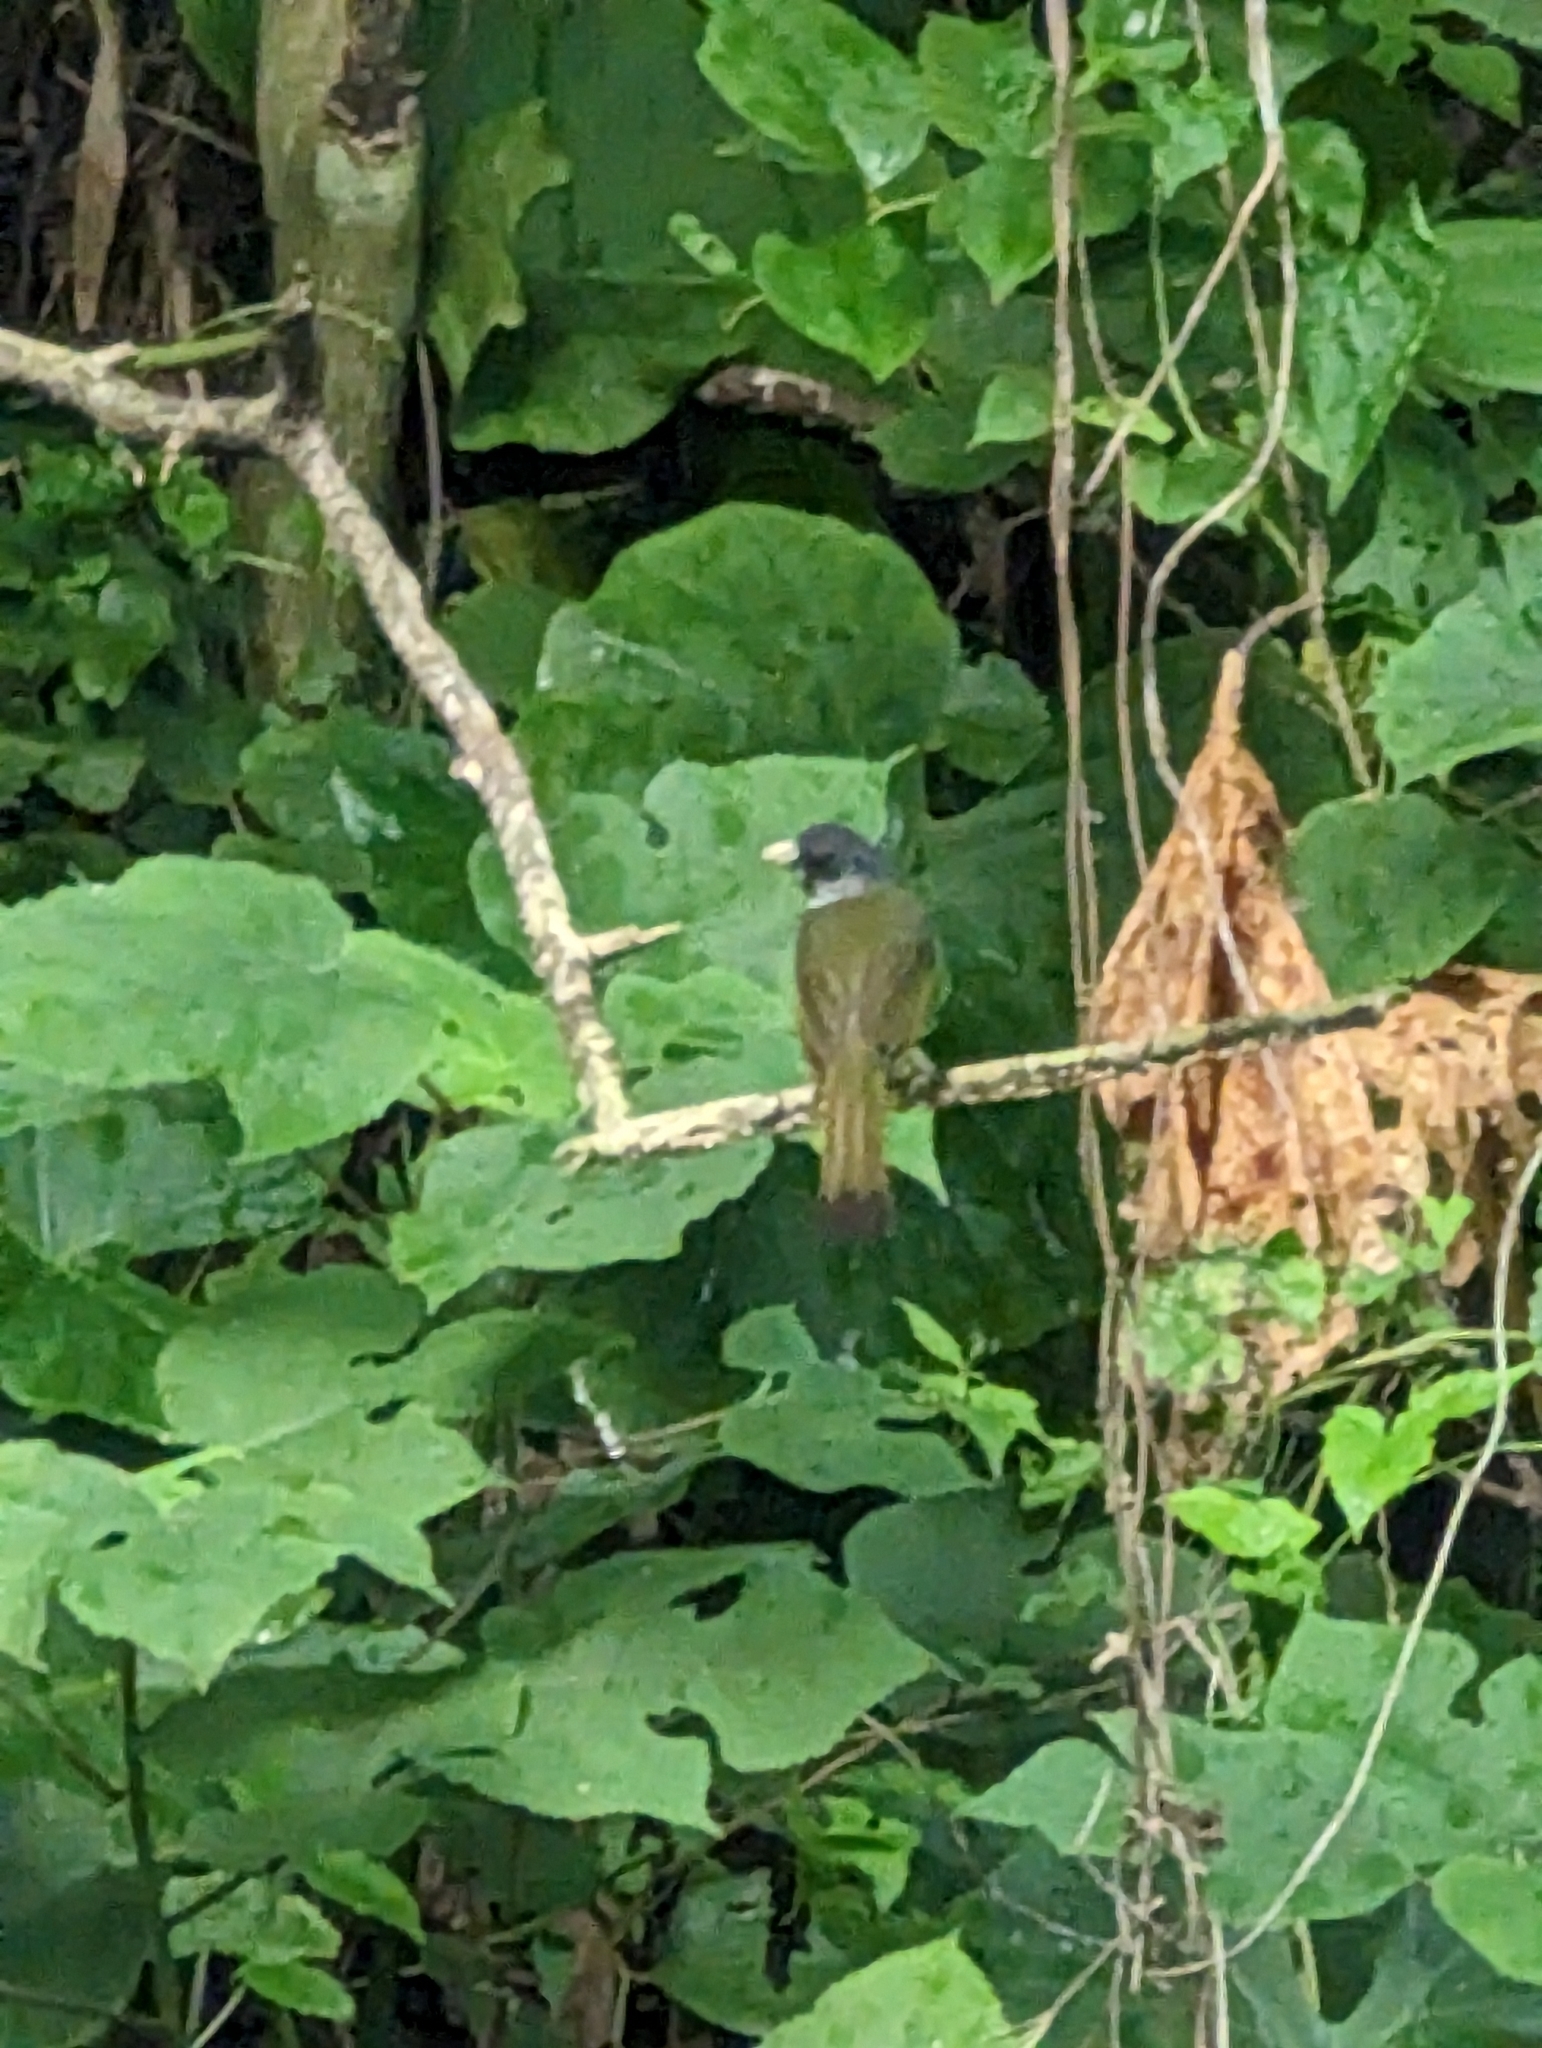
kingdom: Animalia
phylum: Chordata
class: Aves
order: Passeriformes
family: Pycnonotidae
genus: Spizixos
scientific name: Spizixos semitorques
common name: Collared finchbill
